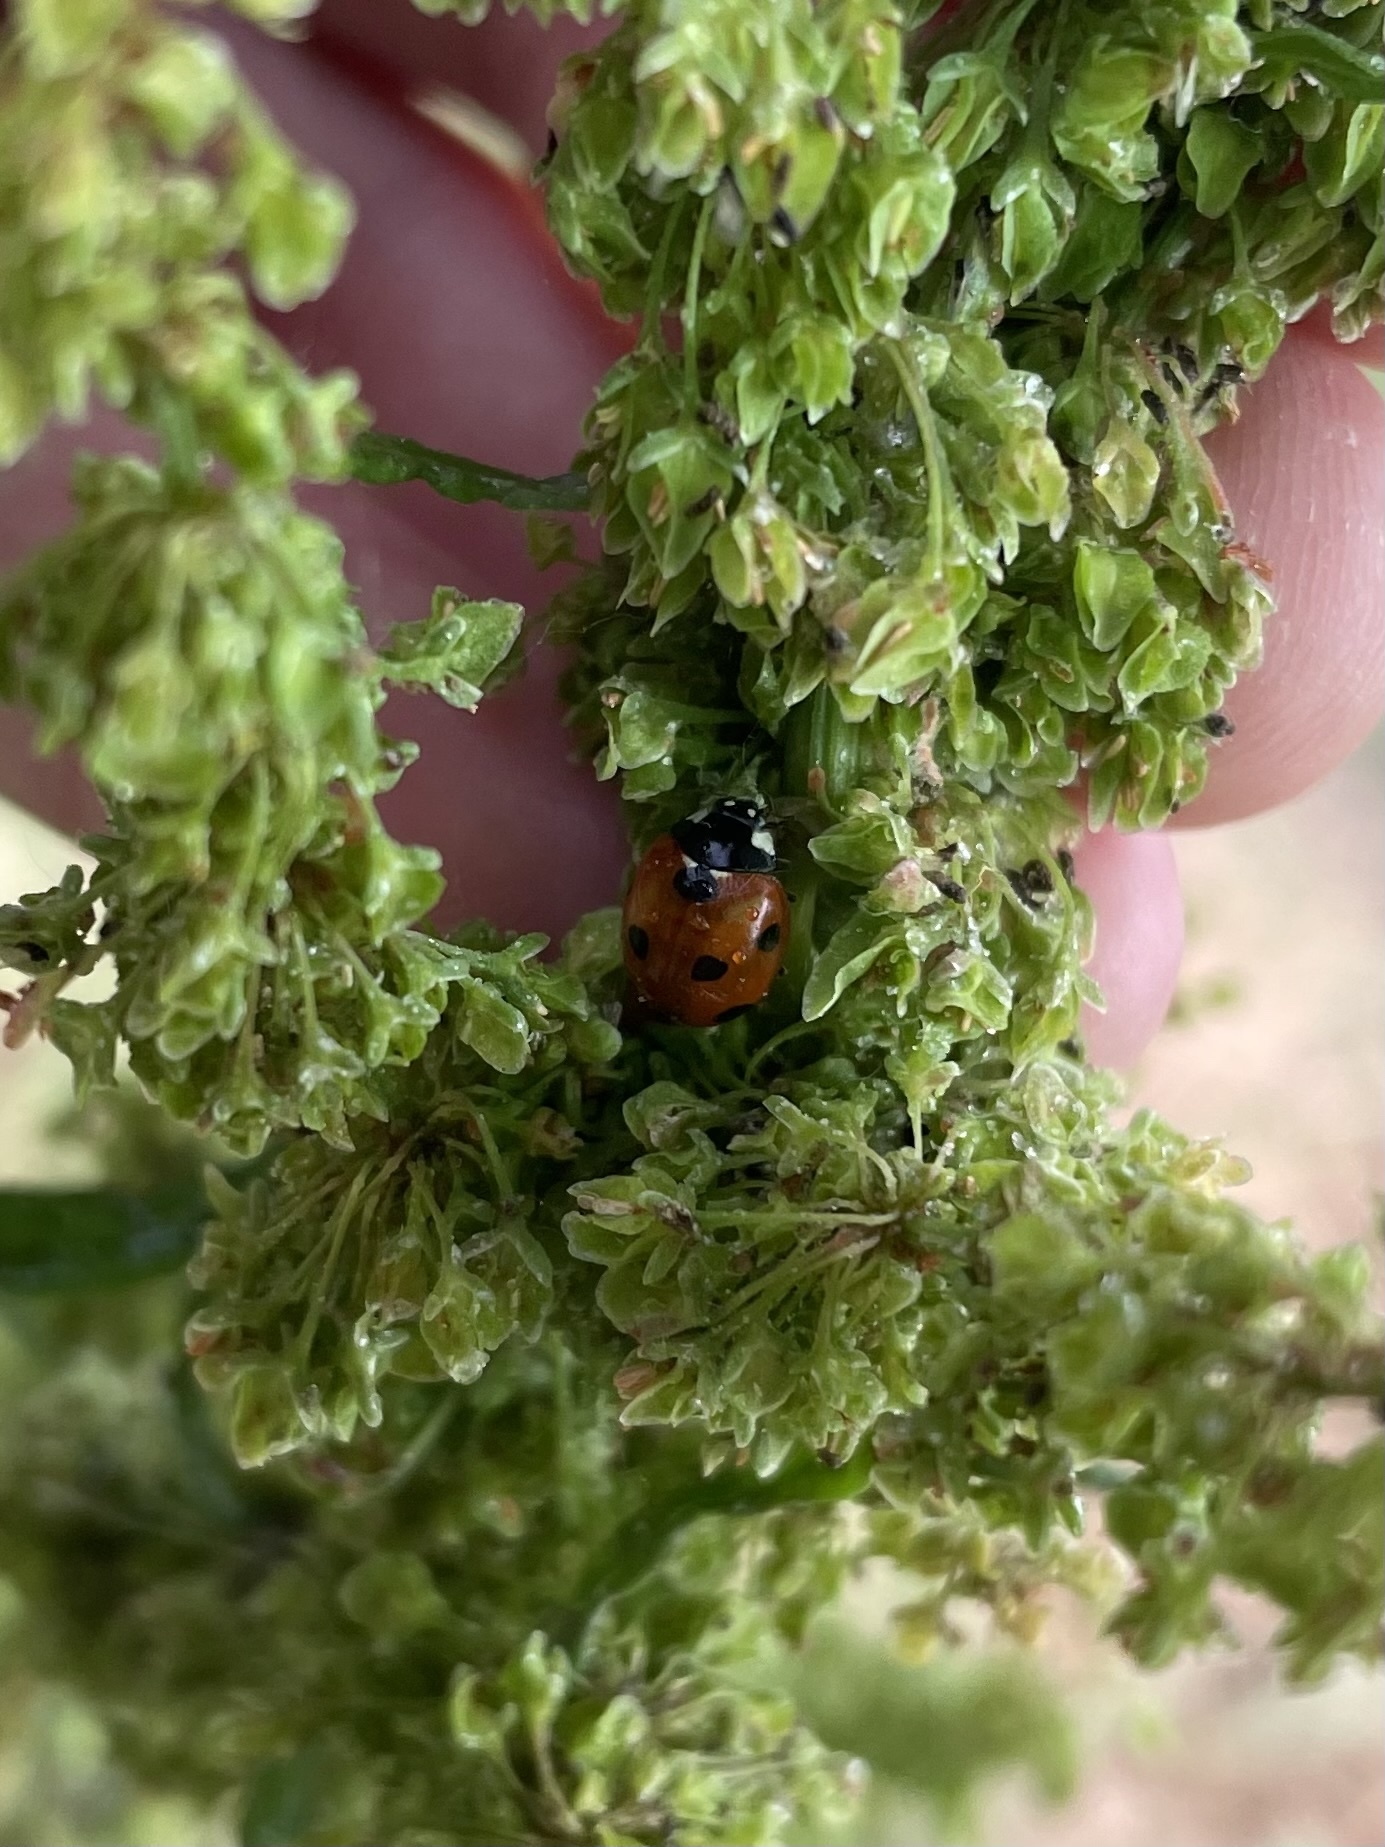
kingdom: Animalia
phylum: Arthropoda
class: Insecta
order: Coleoptera
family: Coccinellidae
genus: Coccinella
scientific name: Coccinella septempunctata
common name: Sevenspotted lady beetle
